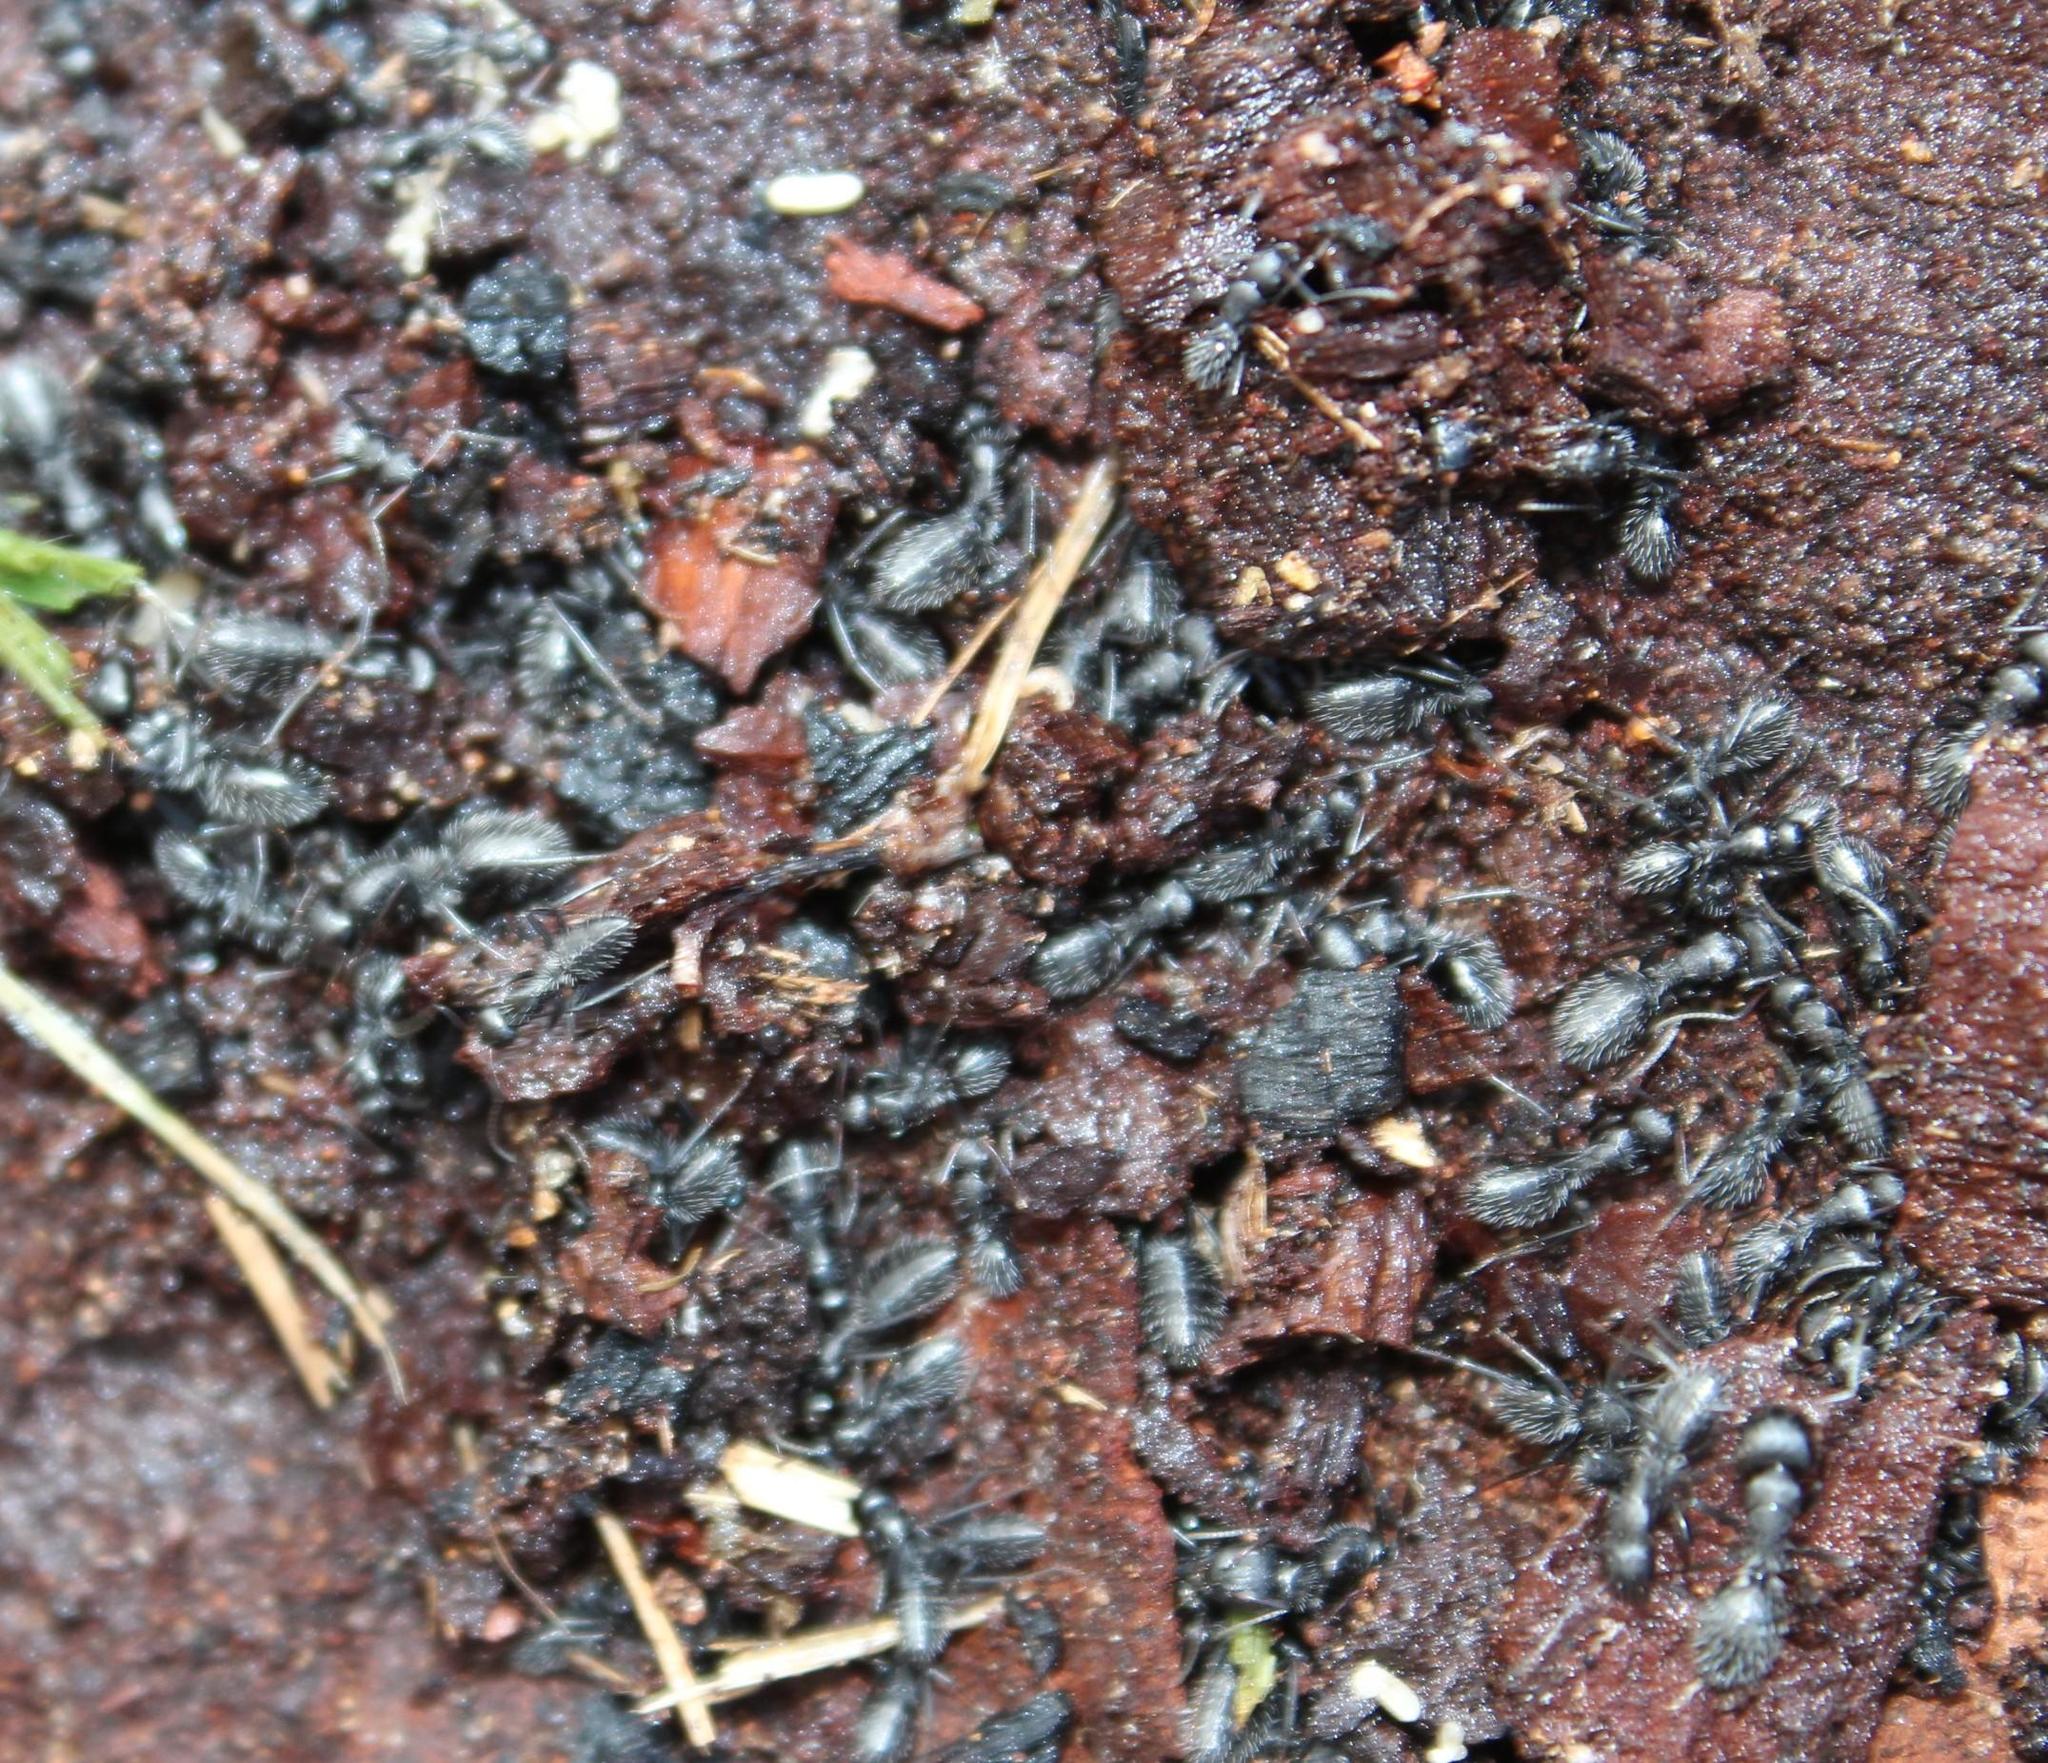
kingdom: Animalia
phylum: Arthropoda
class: Insecta
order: Hymenoptera
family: Formicidae
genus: Camponotus
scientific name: Camponotus niveosetosus
